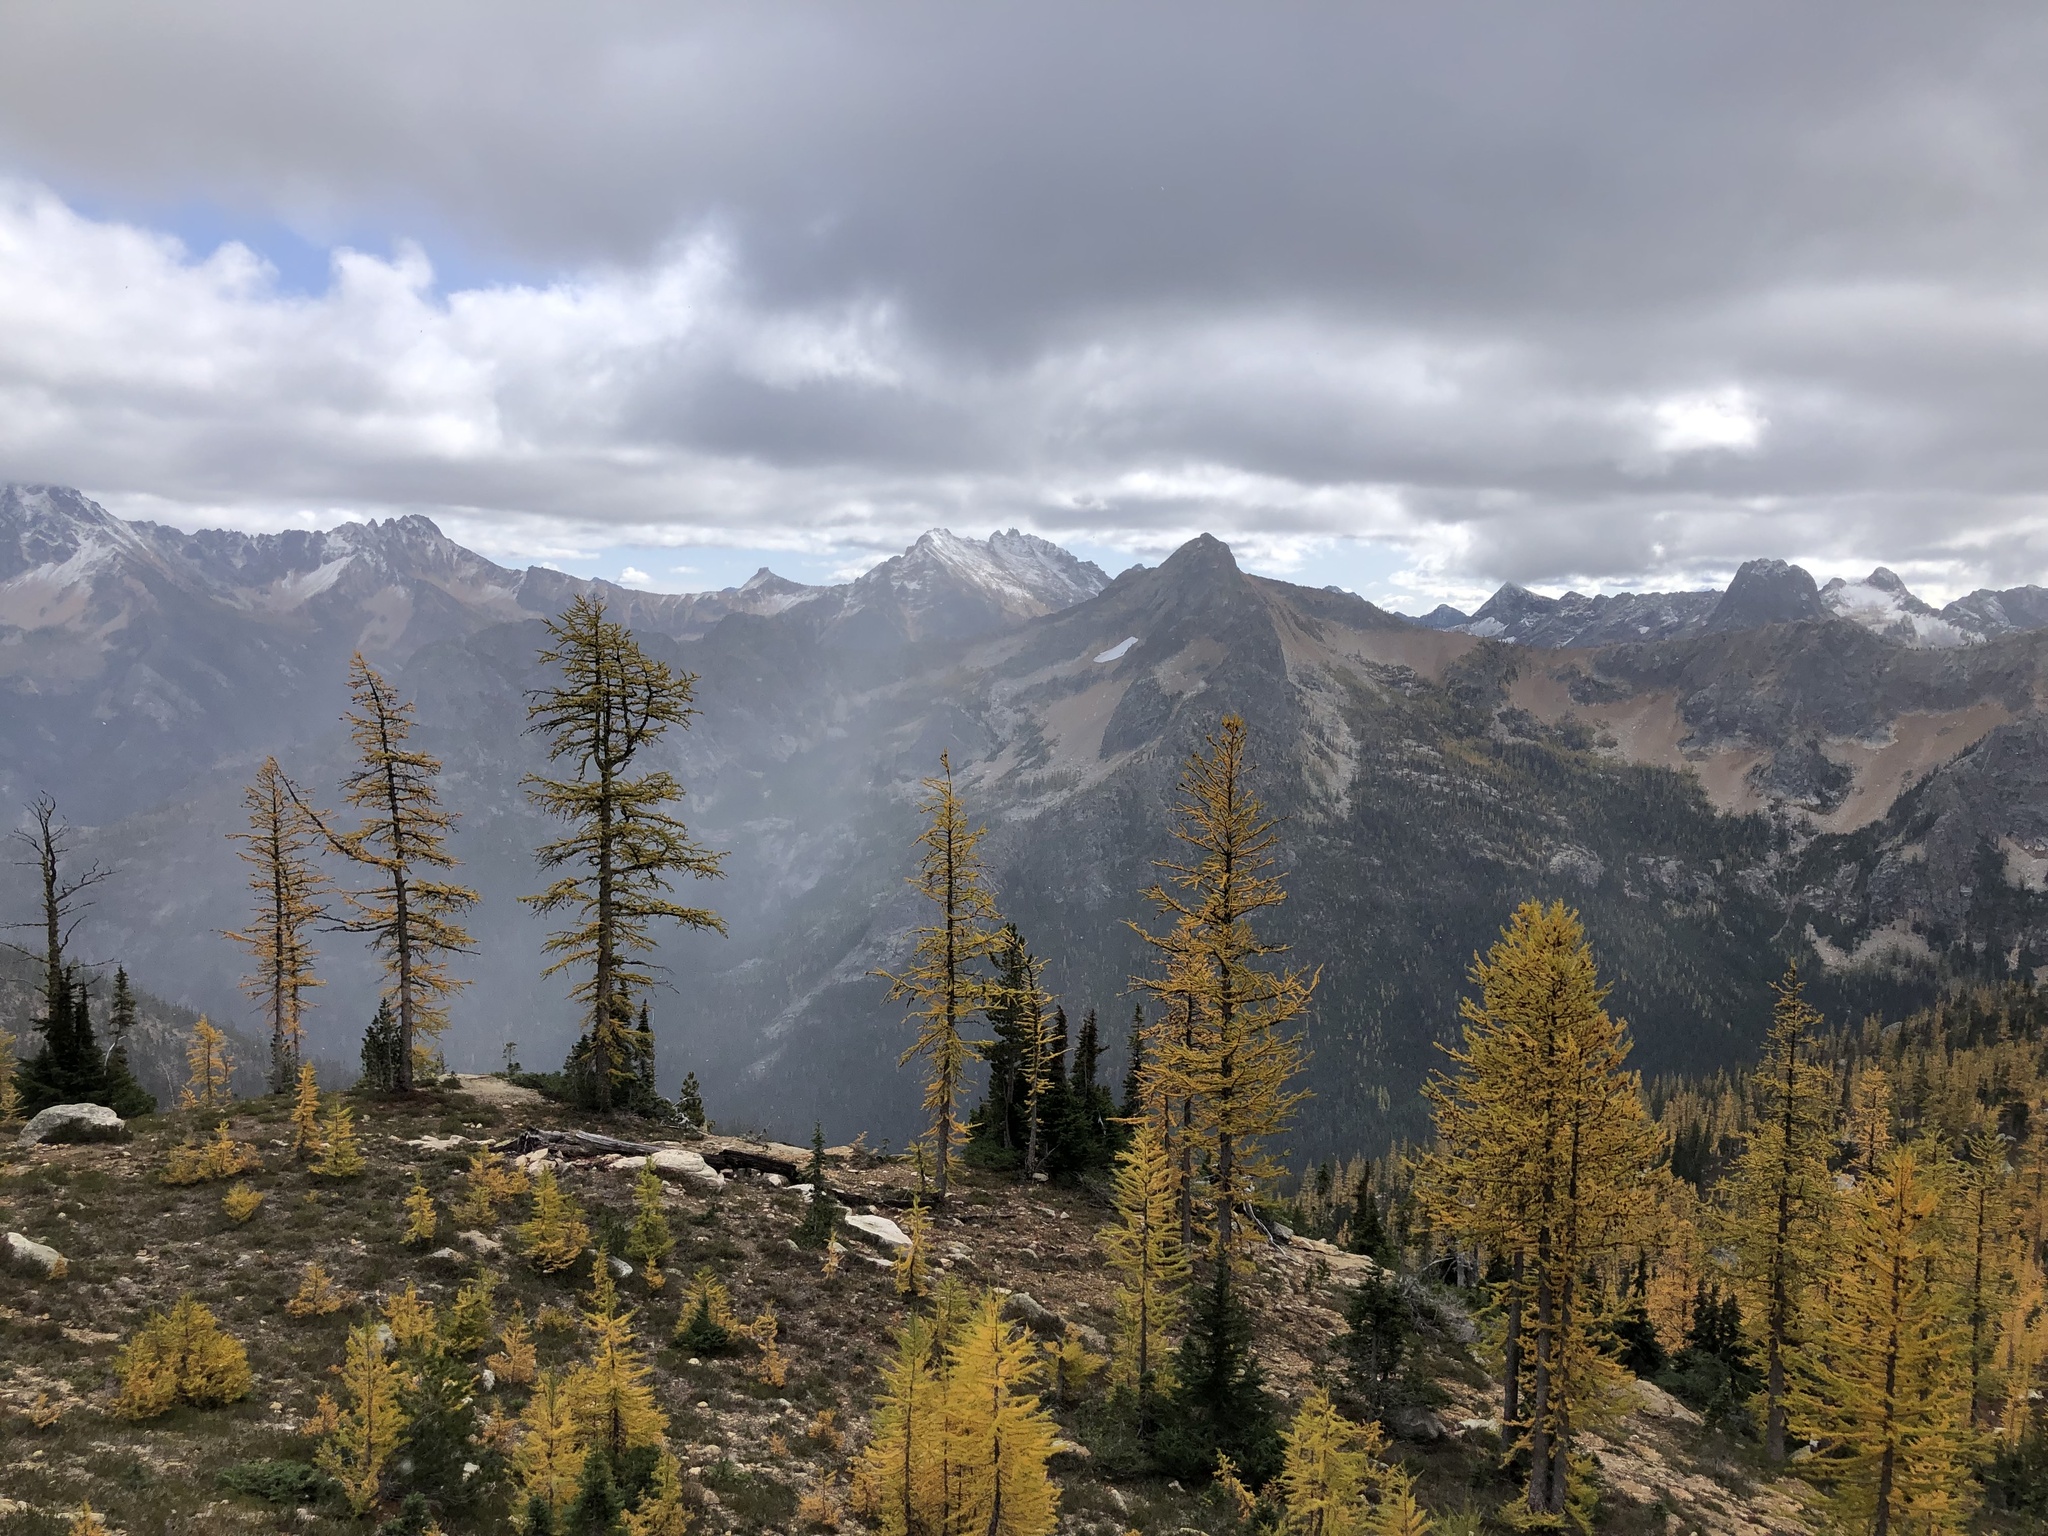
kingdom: Plantae
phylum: Tracheophyta
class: Pinopsida
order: Pinales
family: Pinaceae
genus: Larix
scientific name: Larix lyallii
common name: Alpine larch
